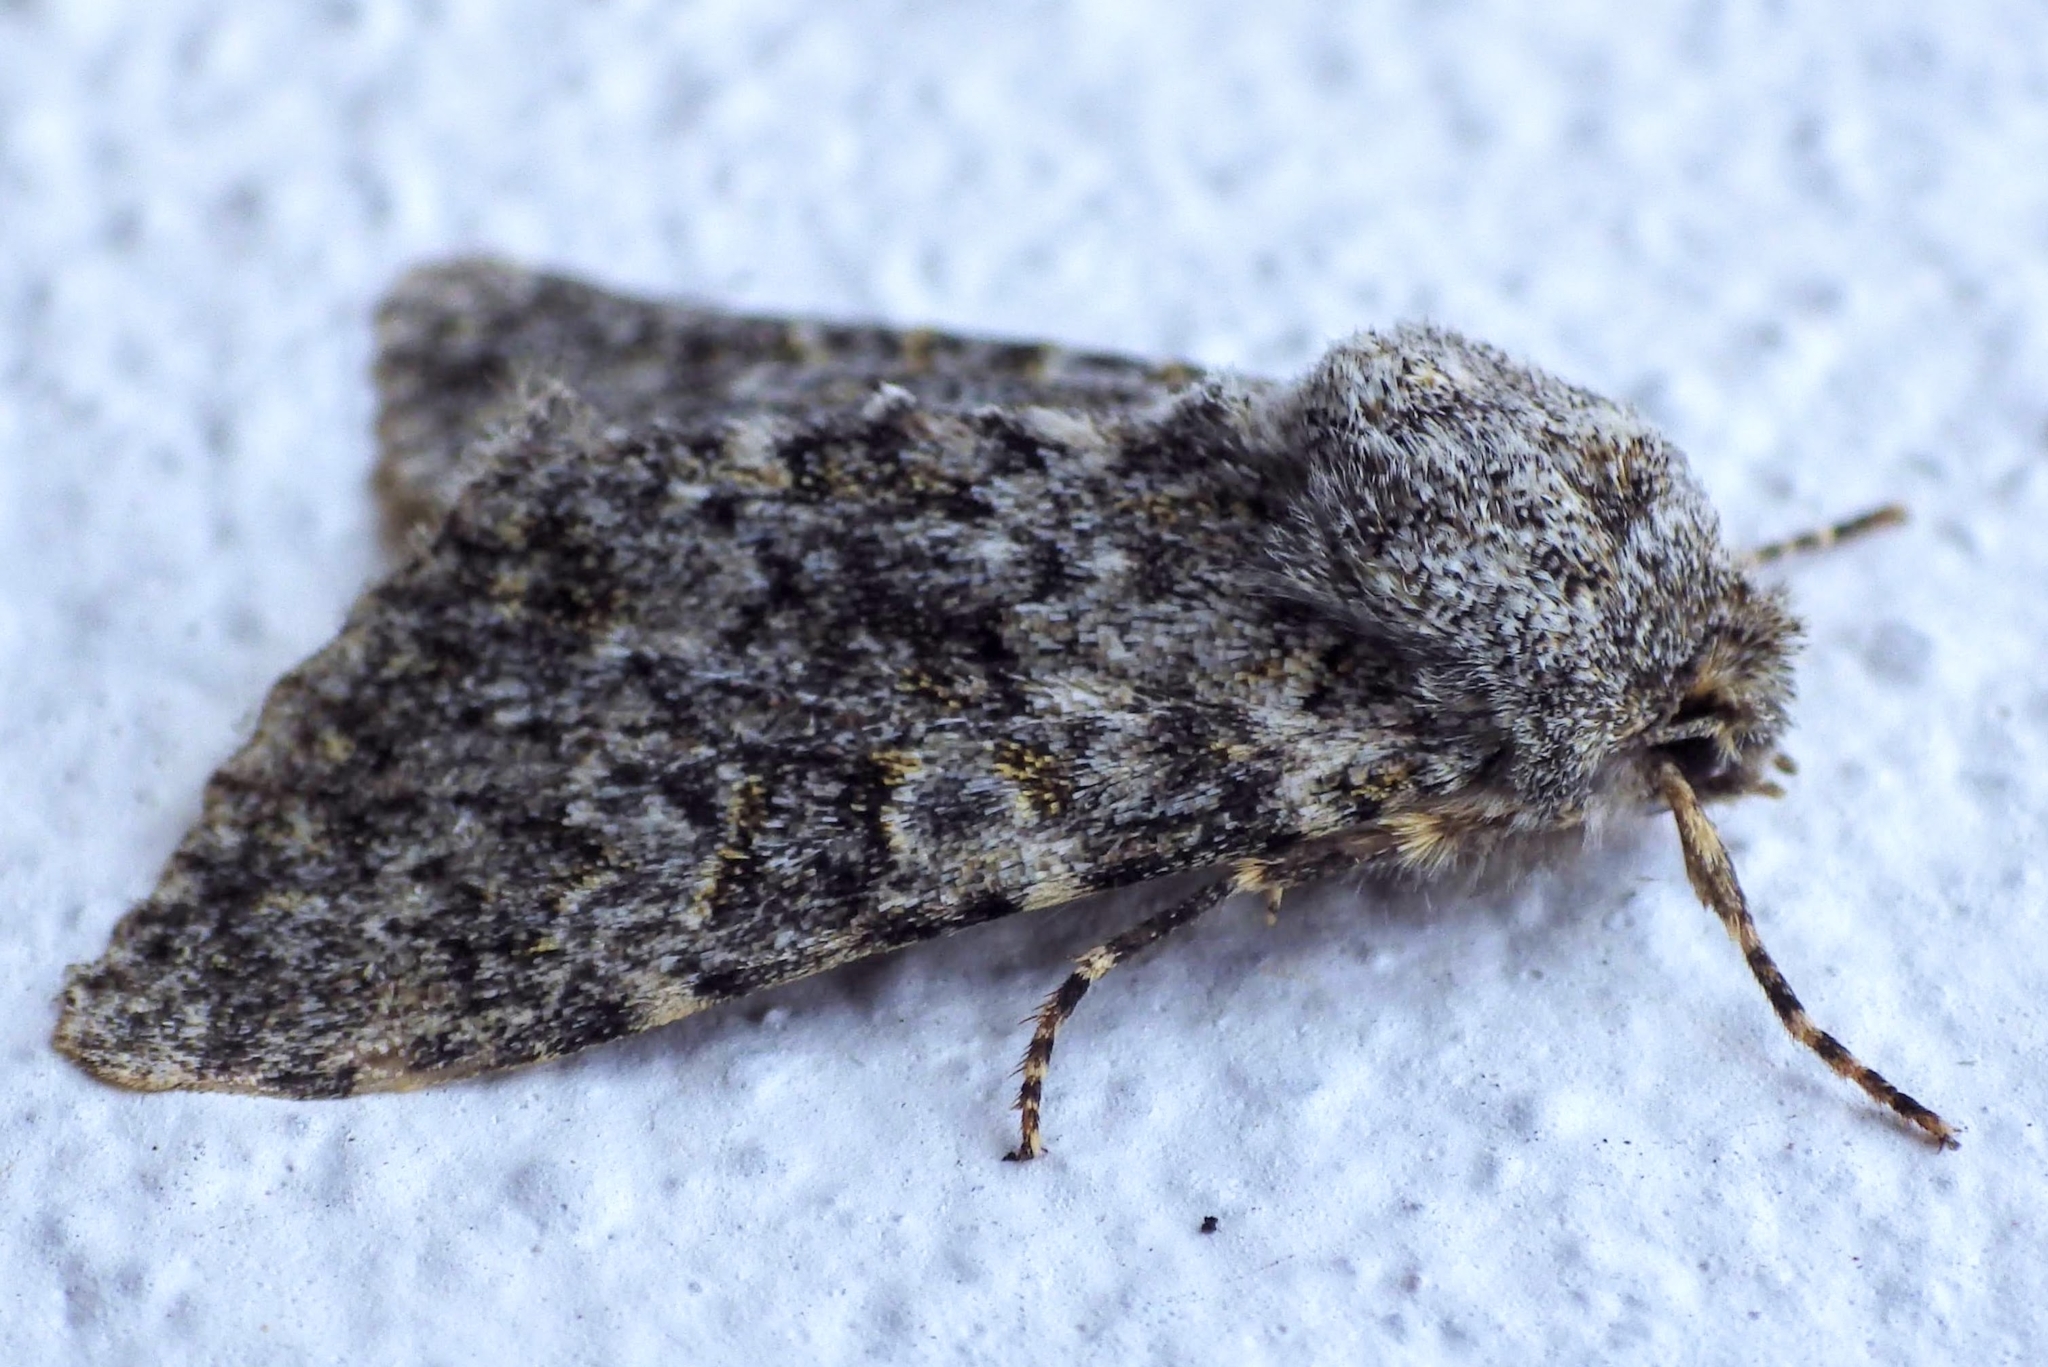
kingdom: Animalia
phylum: Arthropoda
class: Insecta
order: Lepidoptera
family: Noctuidae
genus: Polymixis
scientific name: Polymixis flavicincta
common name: Large ranunculus
